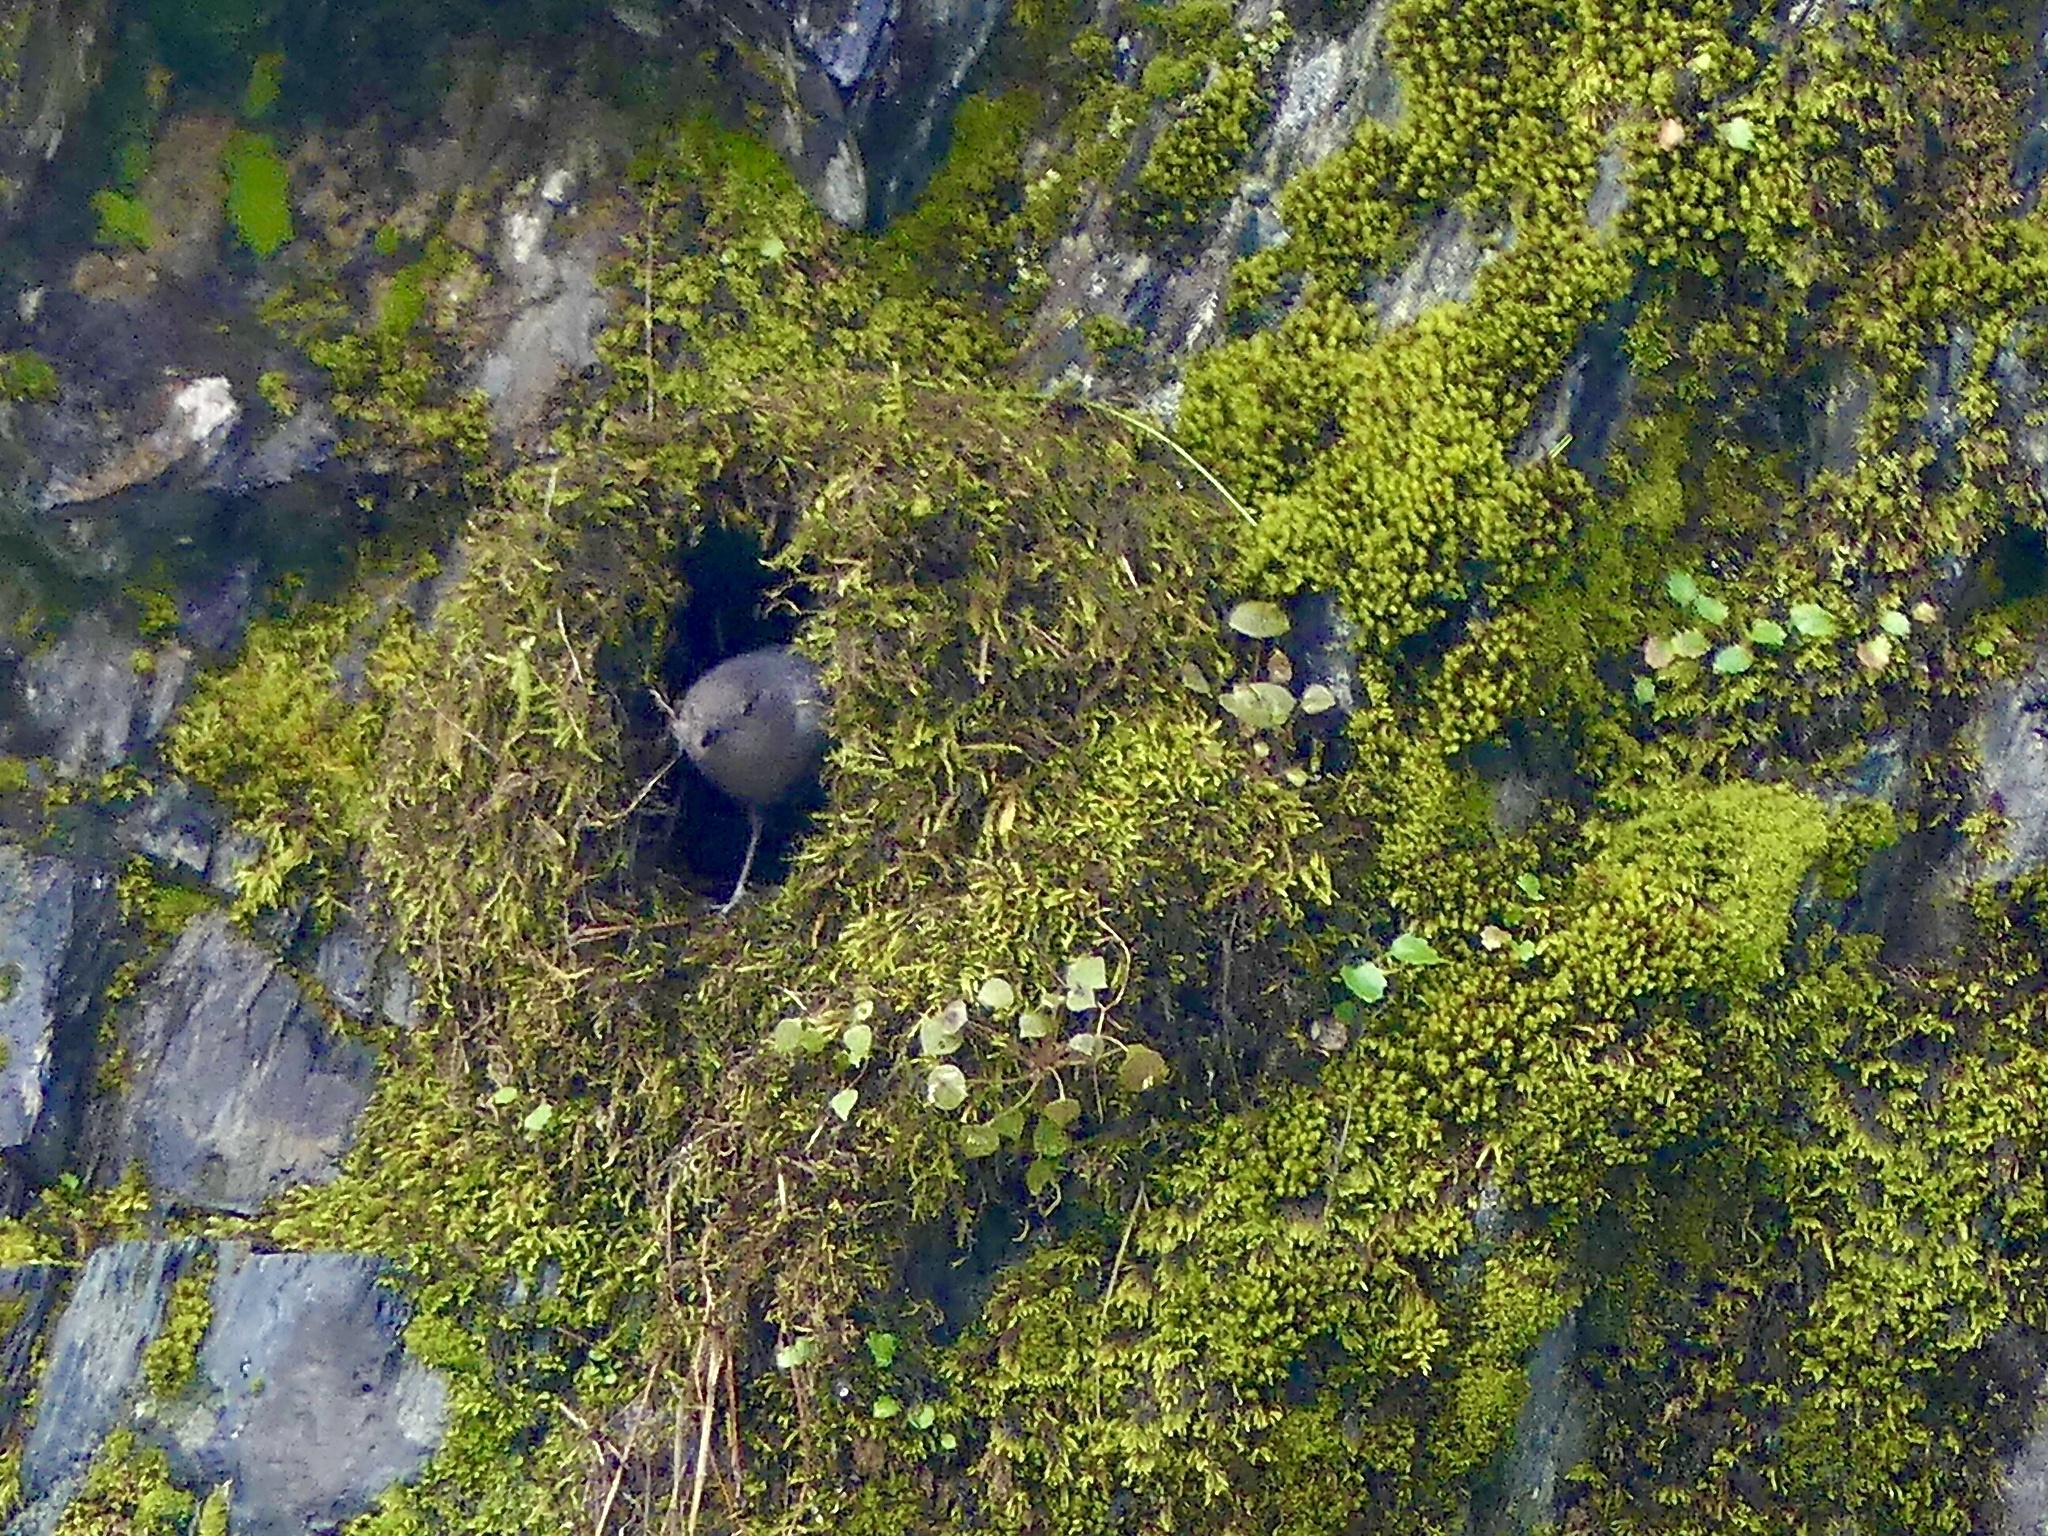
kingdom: Animalia
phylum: Chordata
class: Aves
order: Passeriformes
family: Cinclidae
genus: Cinclus
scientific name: Cinclus mexicanus
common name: American dipper
